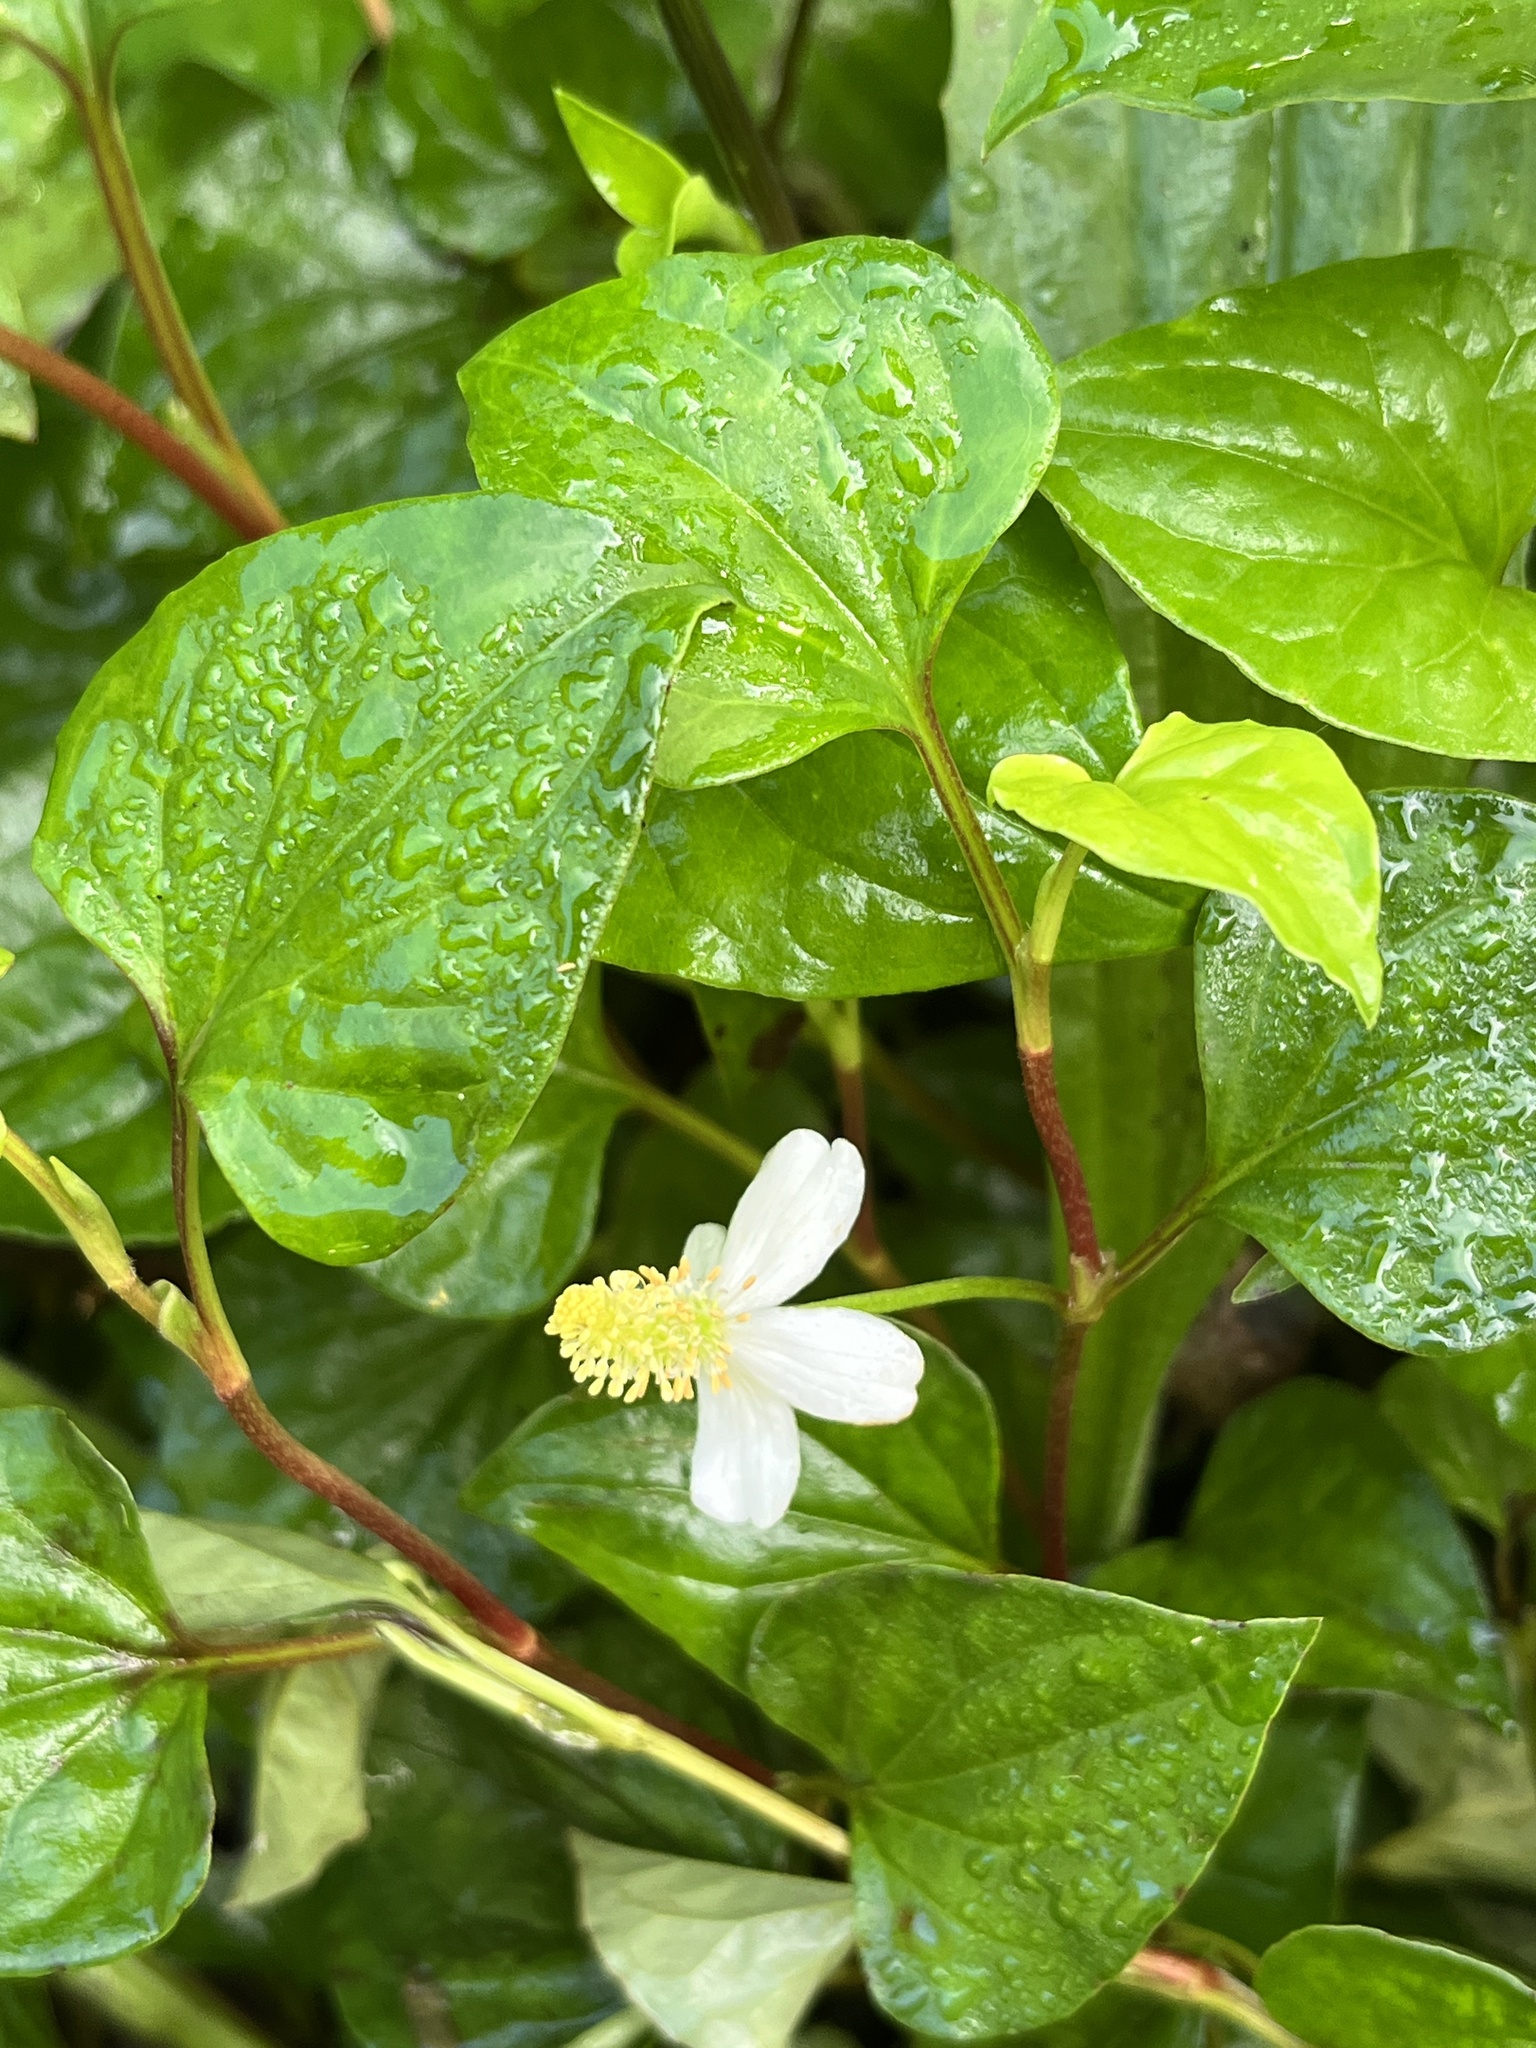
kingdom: Plantae
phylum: Tracheophyta
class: Magnoliopsida
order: Piperales
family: Saururaceae
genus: Houttuynia
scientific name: Houttuynia cordata
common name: Chameleon
